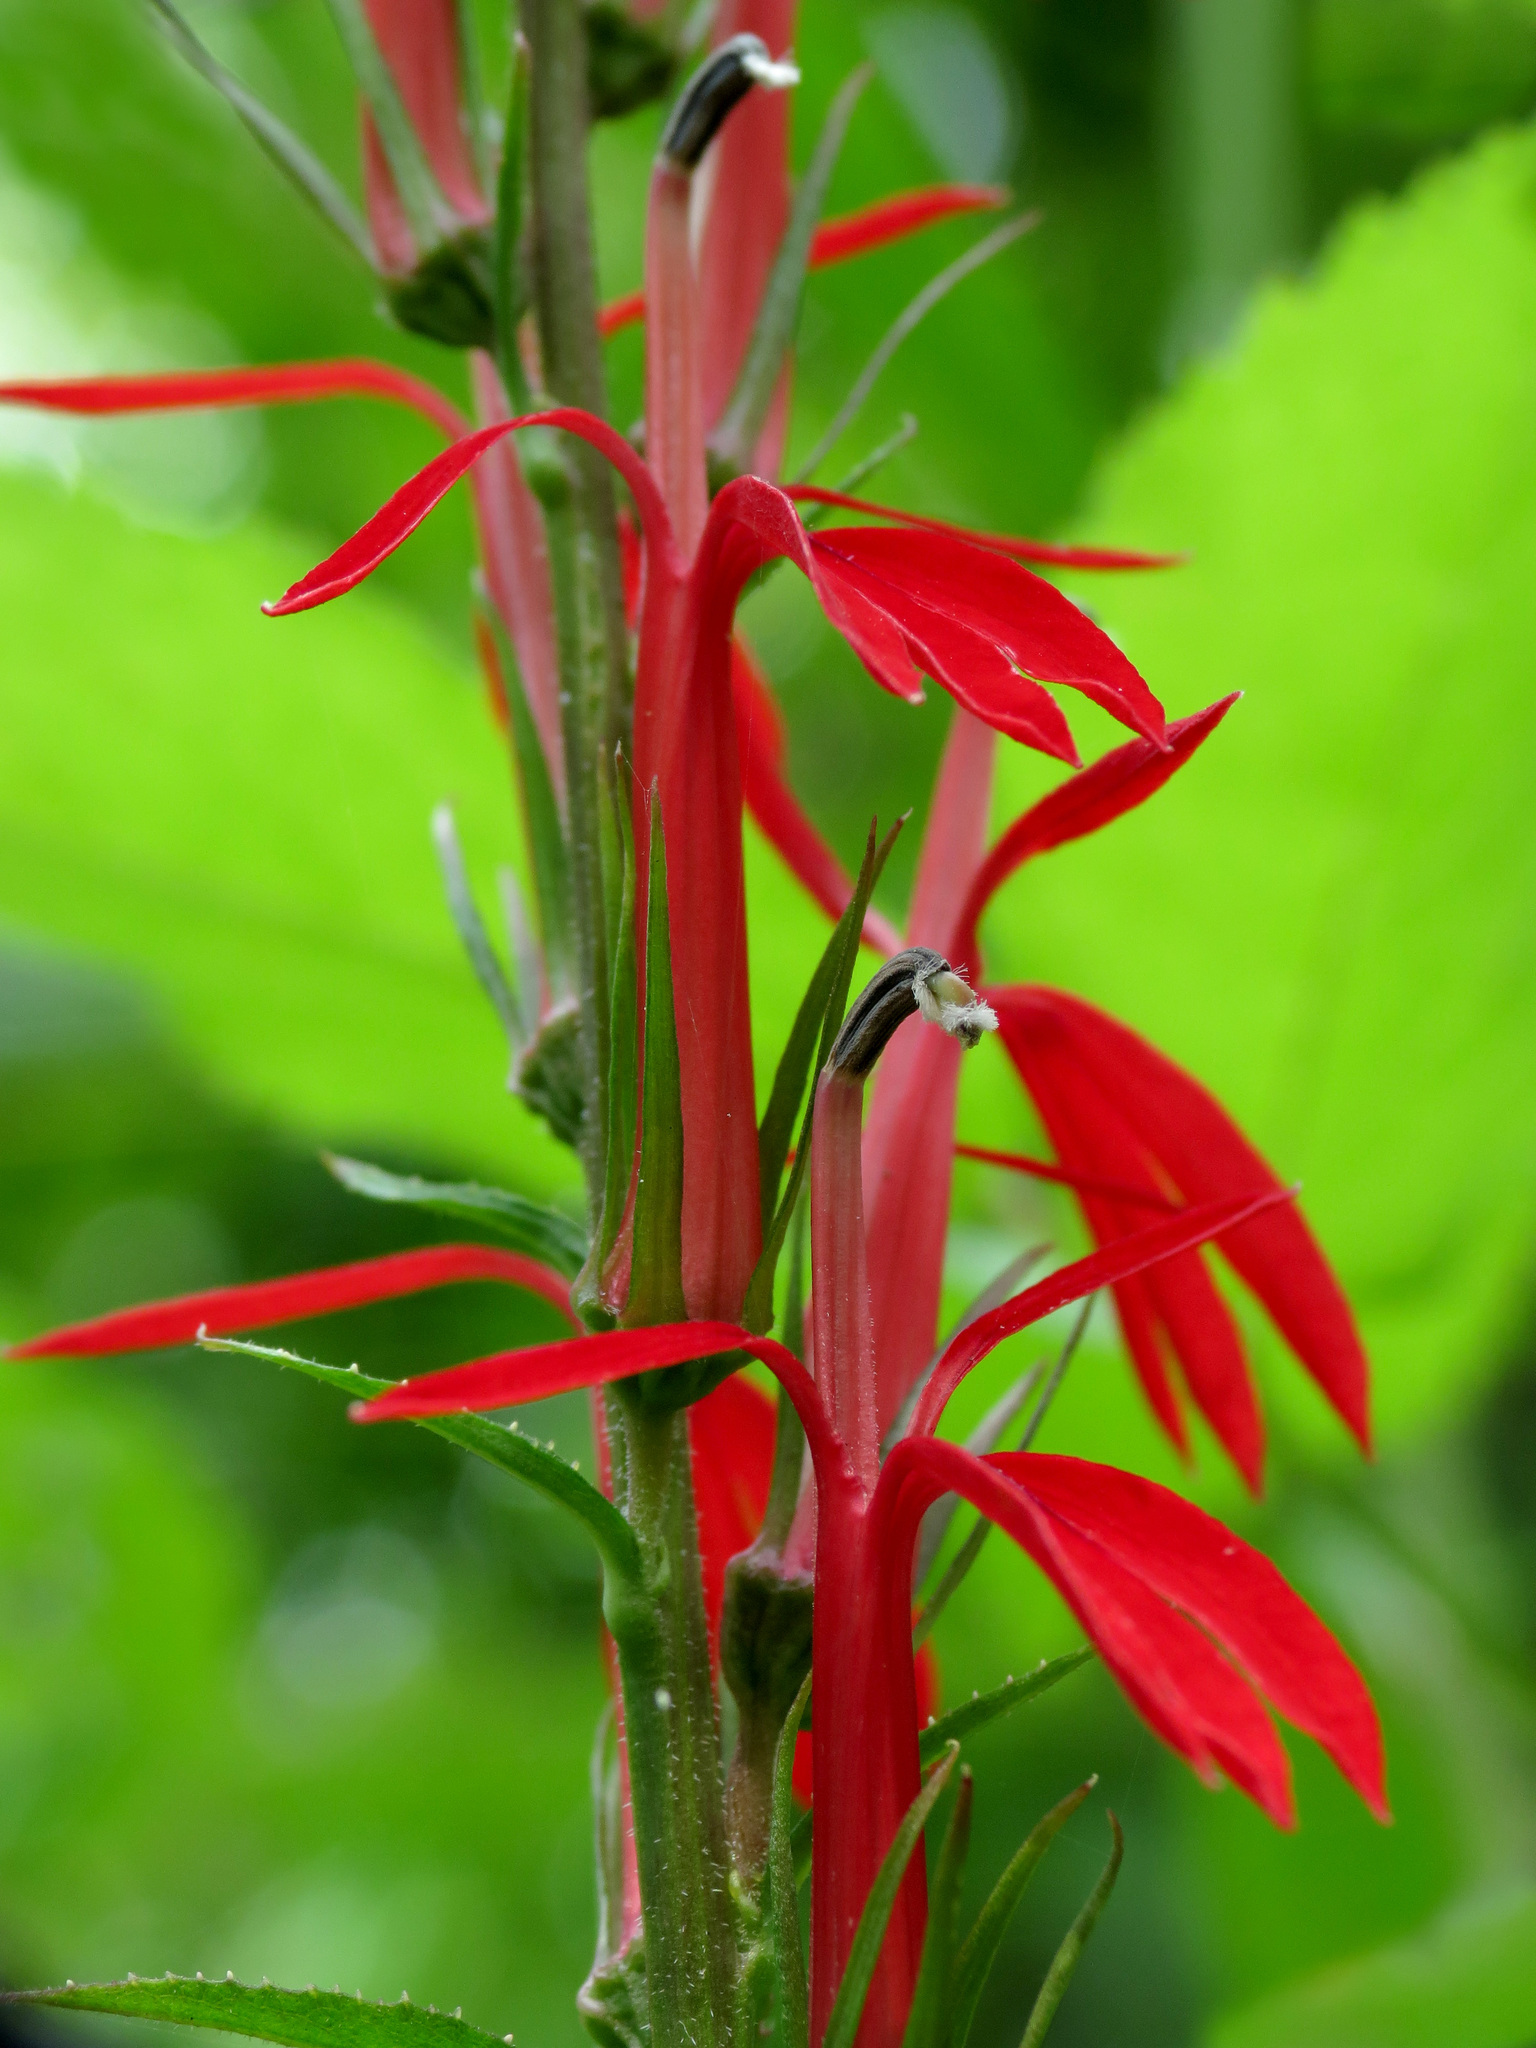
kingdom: Plantae
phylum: Tracheophyta
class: Magnoliopsida
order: Asterales
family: Campanulaceae
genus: Lobelia
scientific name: Lobelia cardinalis
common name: Cardinal flower
